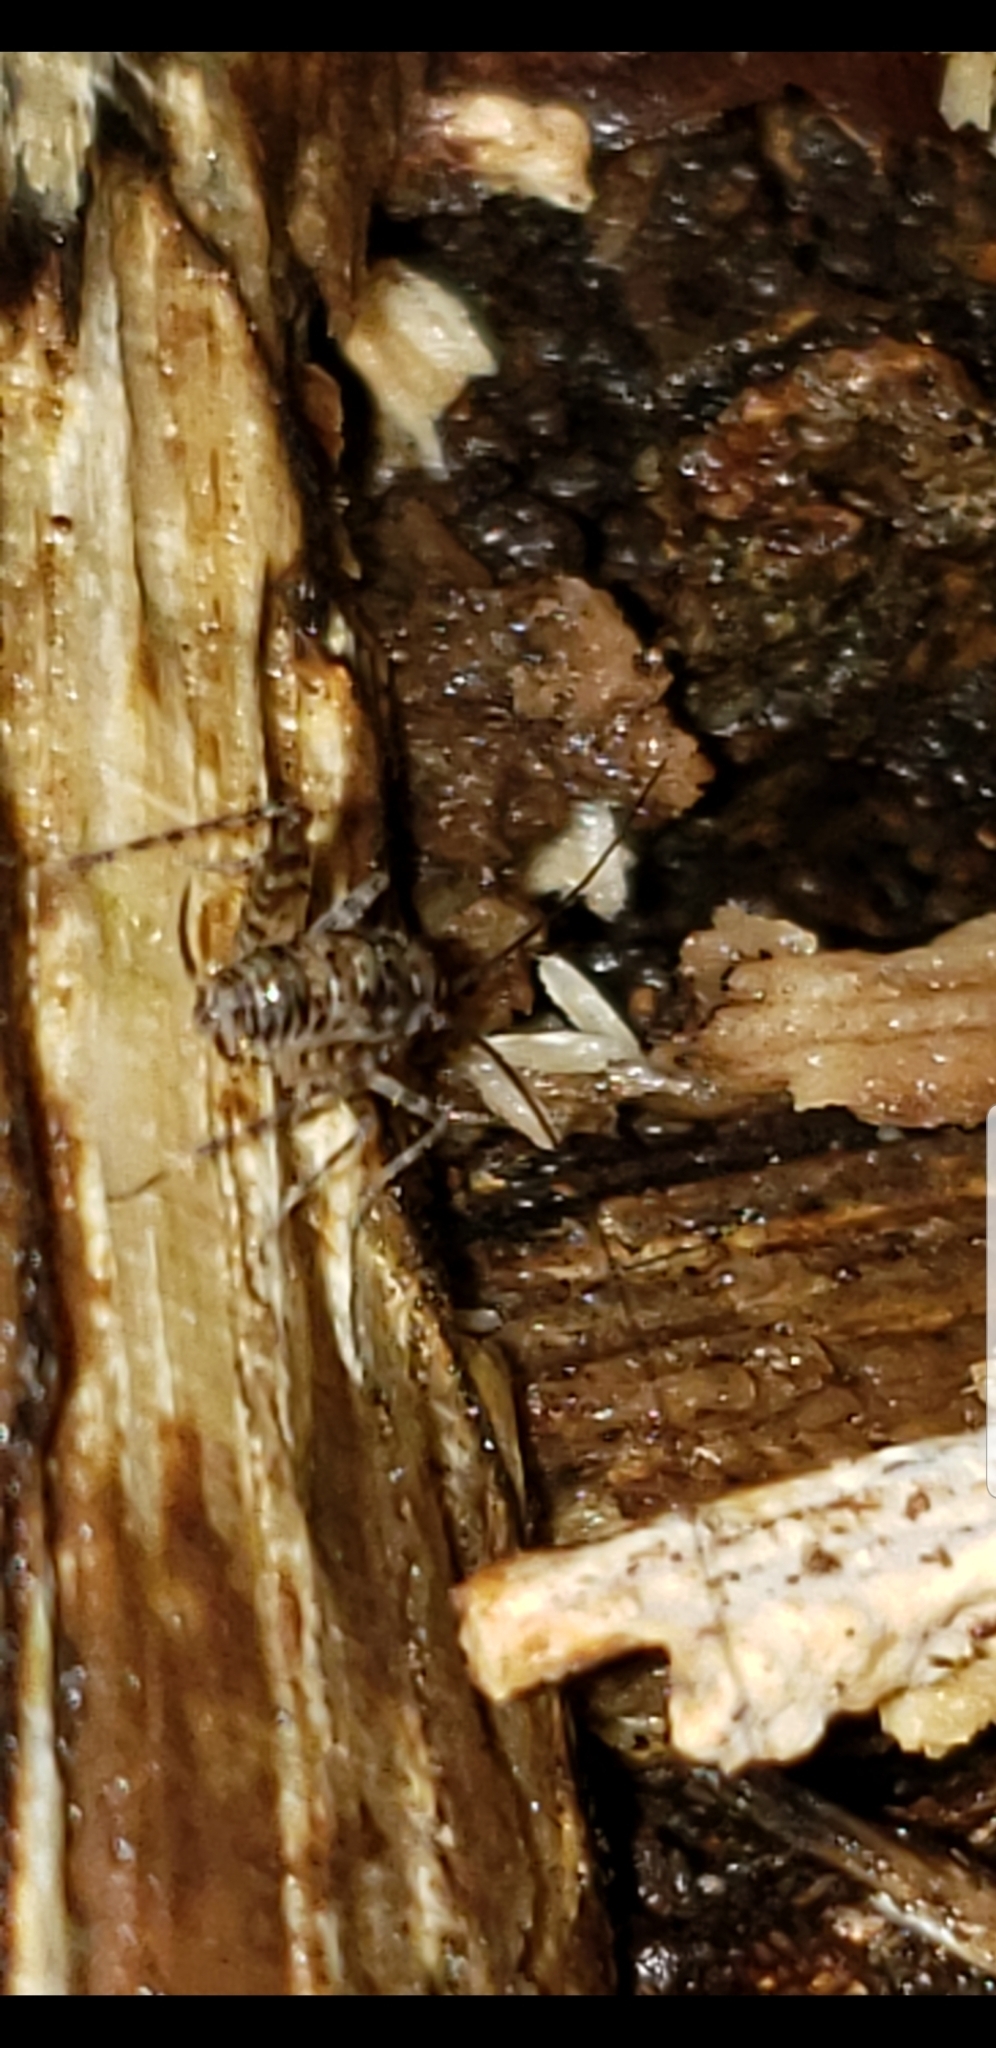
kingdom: Animalia
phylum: Arthropoda
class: Insecta
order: Orthoptera
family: Rhaphidophoridae
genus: Tachycines
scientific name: Tachycines asynamorus
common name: Greenhouse camel cricket
